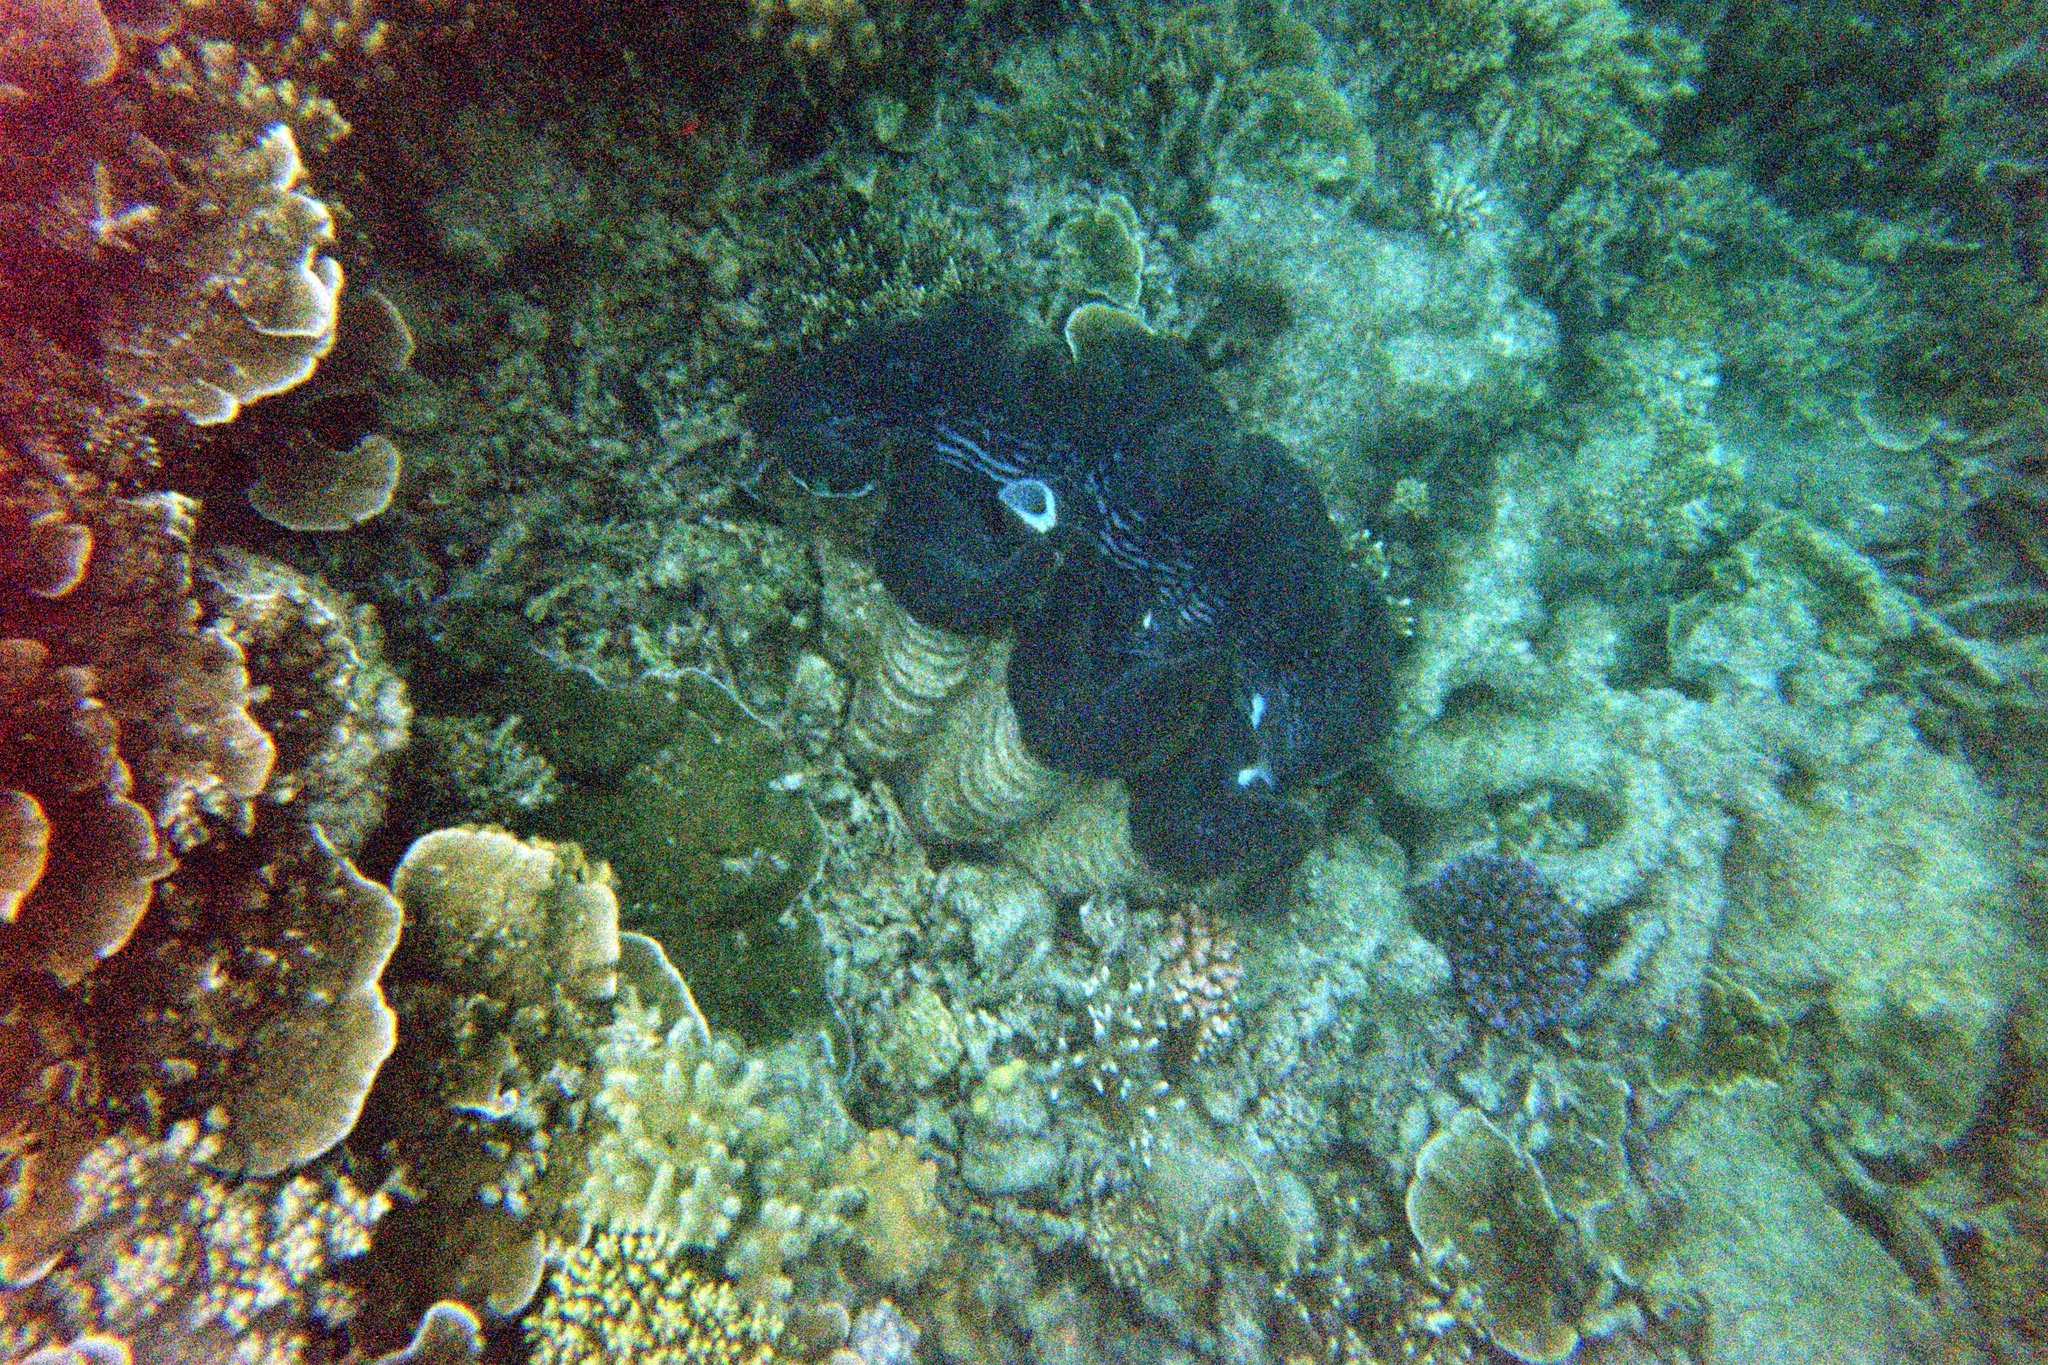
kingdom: Animalia
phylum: Mollusca
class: Bivalvia
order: Cardiida
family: Cardiidae
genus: Tridacna
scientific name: Tridacna maxima
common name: Small giant clam
